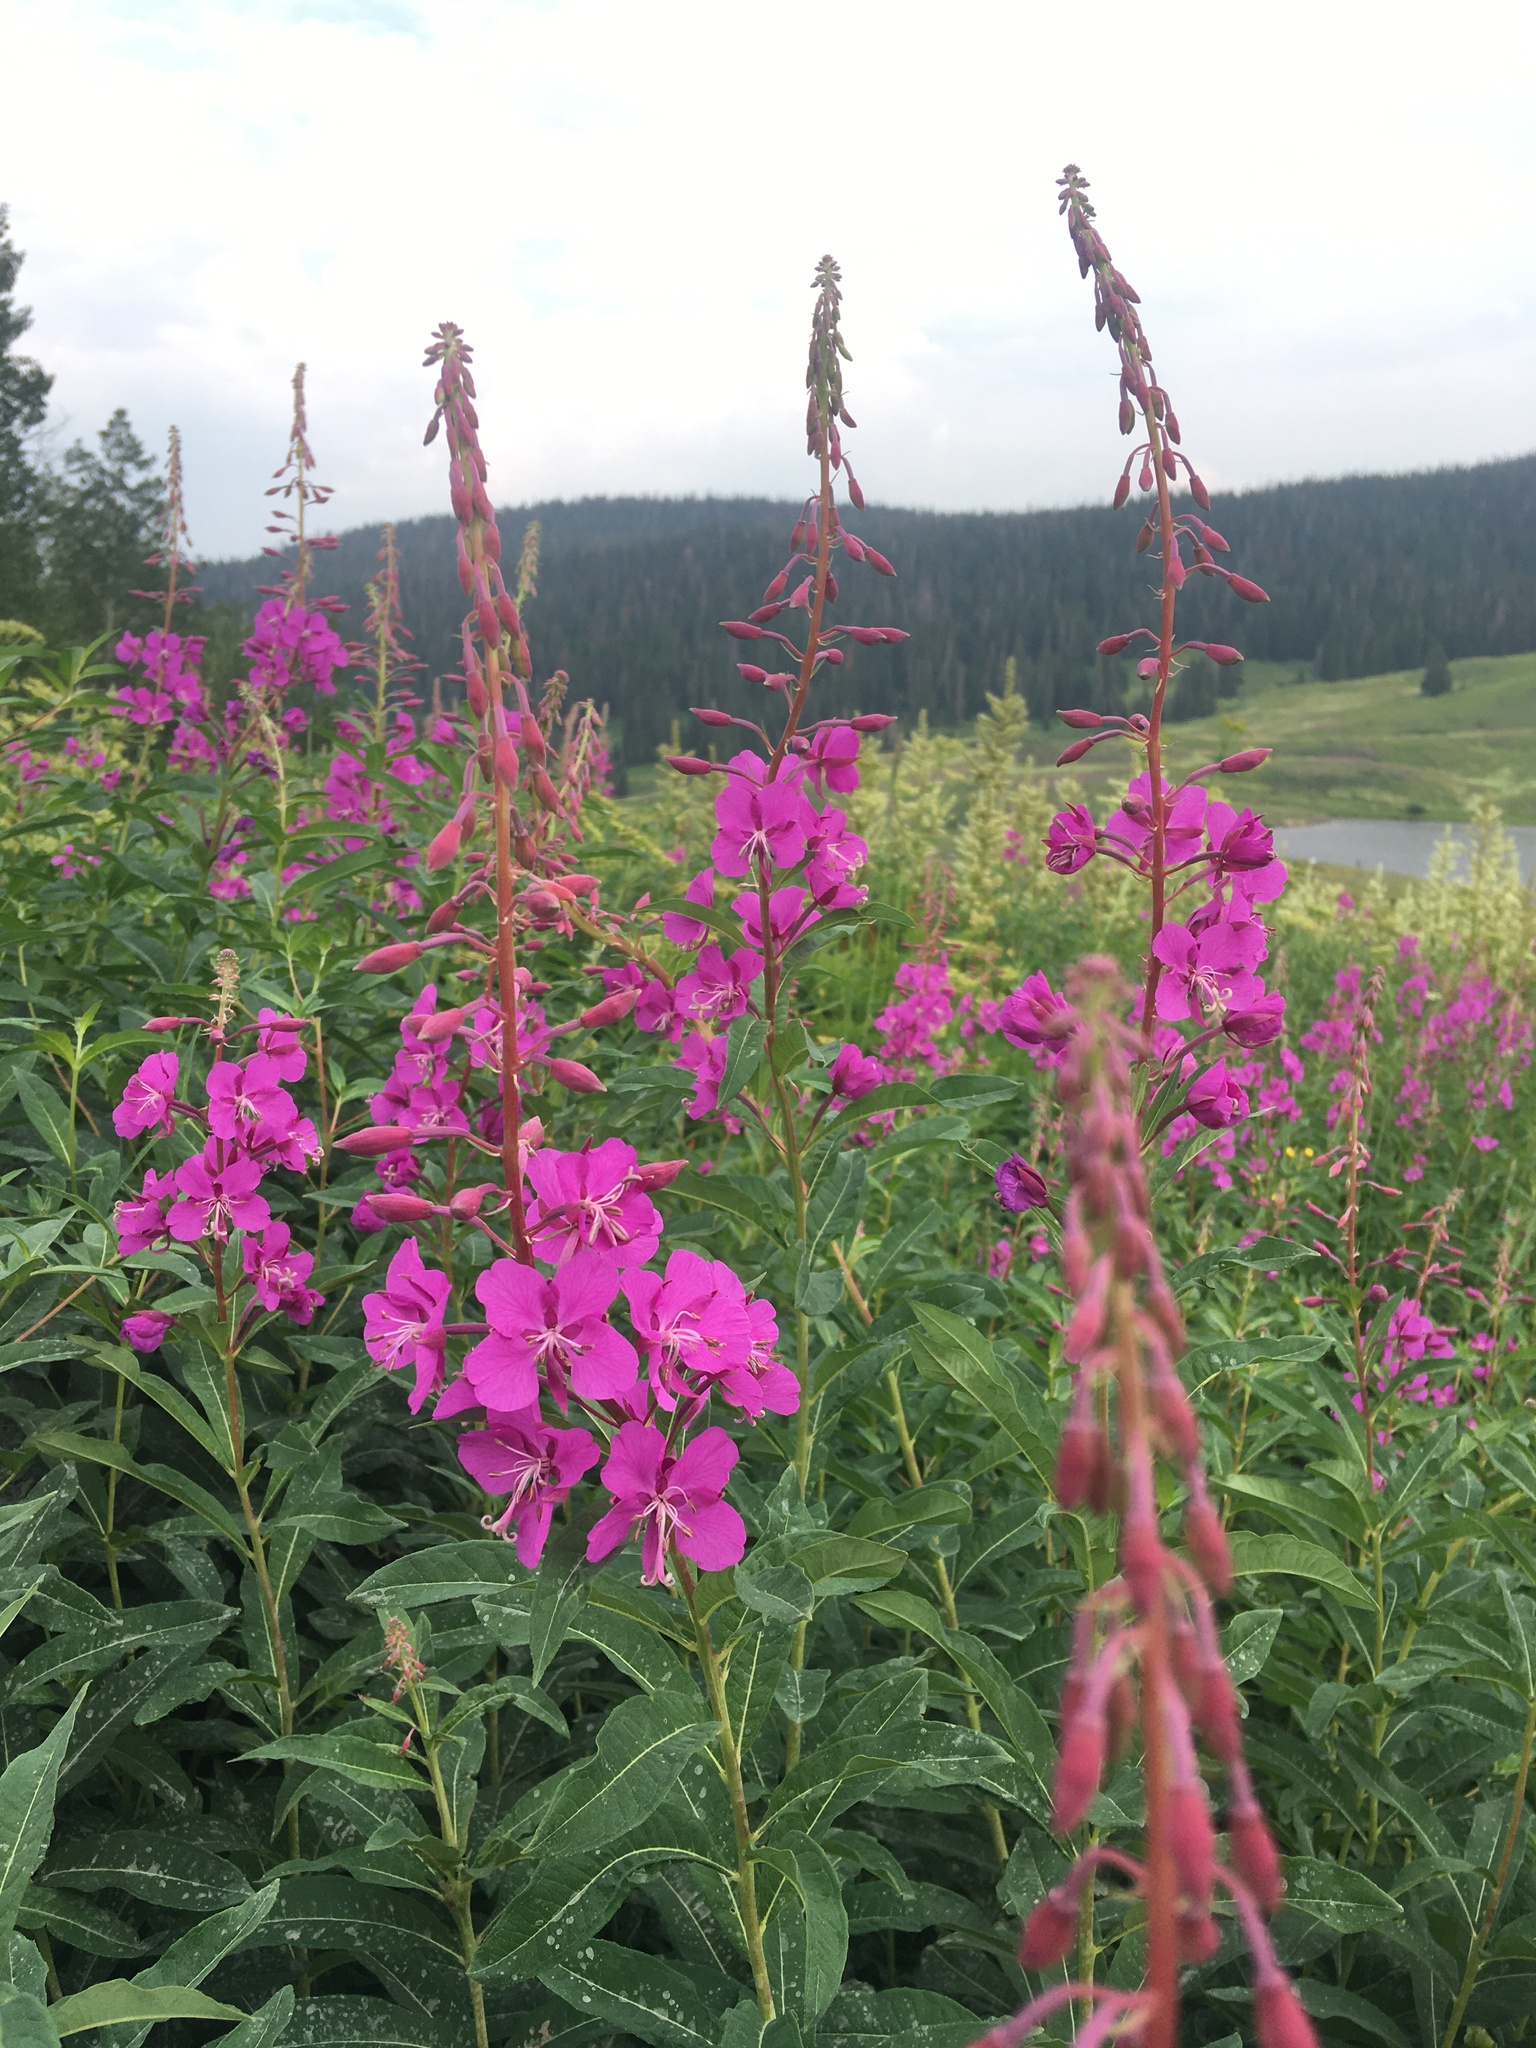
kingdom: Plantae
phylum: Tracheophyta
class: Magnoliopsida
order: Myrtales
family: Onagraceae
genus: Chamaenerion
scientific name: Chamaenerion angustifolium
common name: Fireweed
